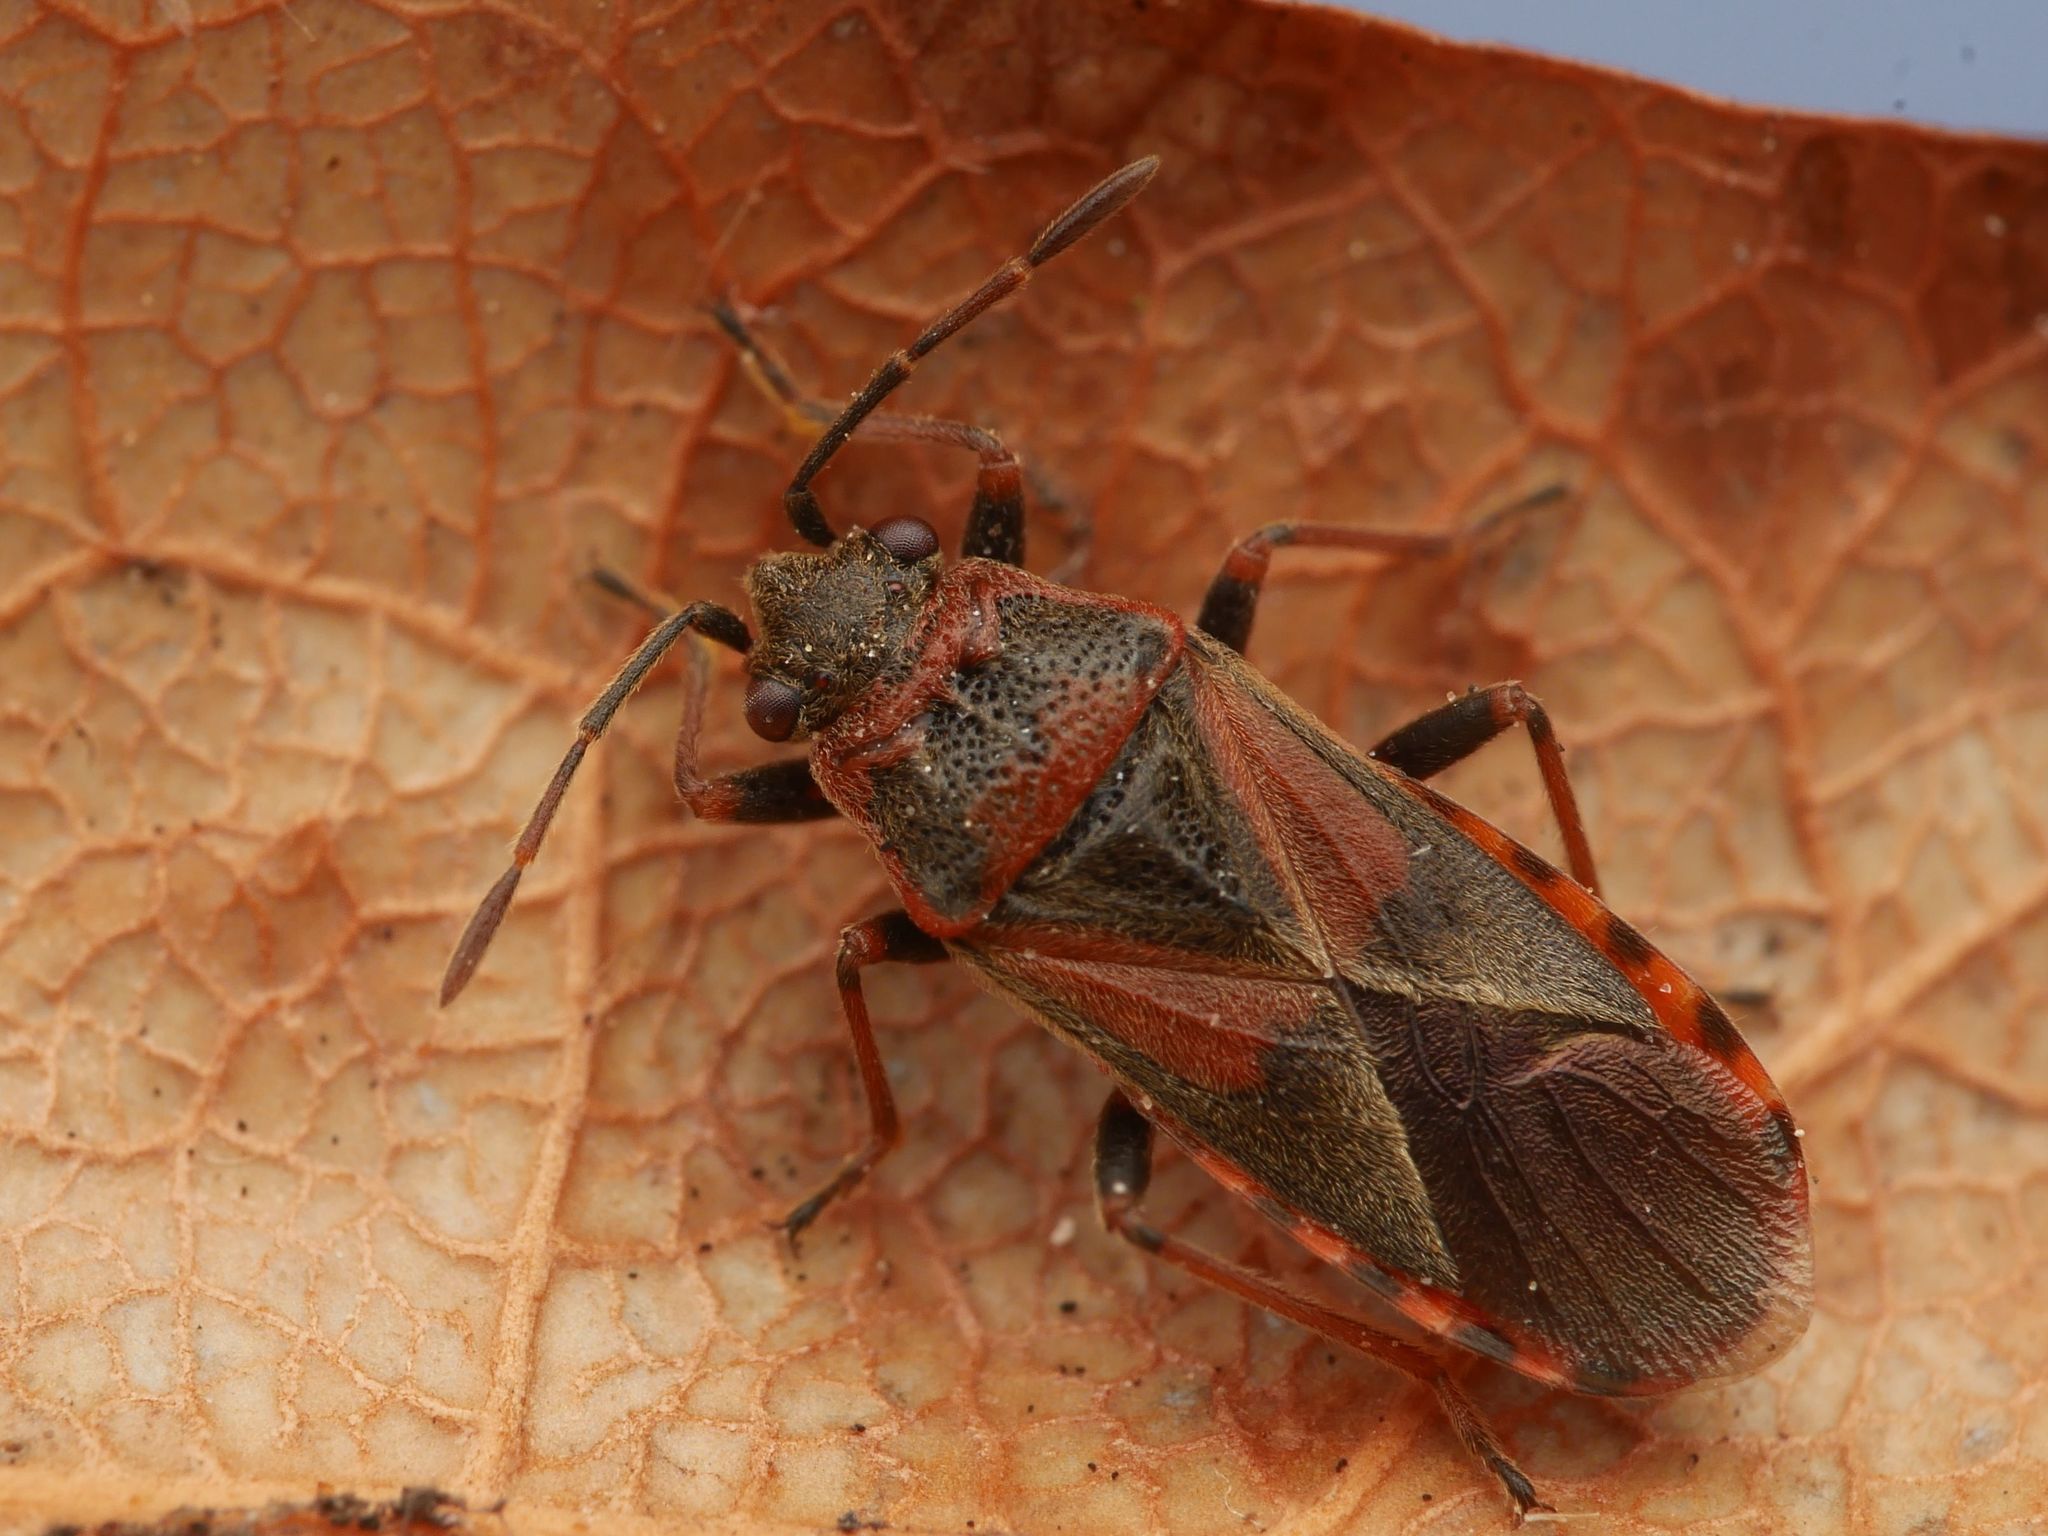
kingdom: Animalia
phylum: Arthropoda
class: Insecta
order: Hemiptera
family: Lygaeidae
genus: Arocatus
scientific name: Arocatus melanocephalus
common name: Lygaeid bug
